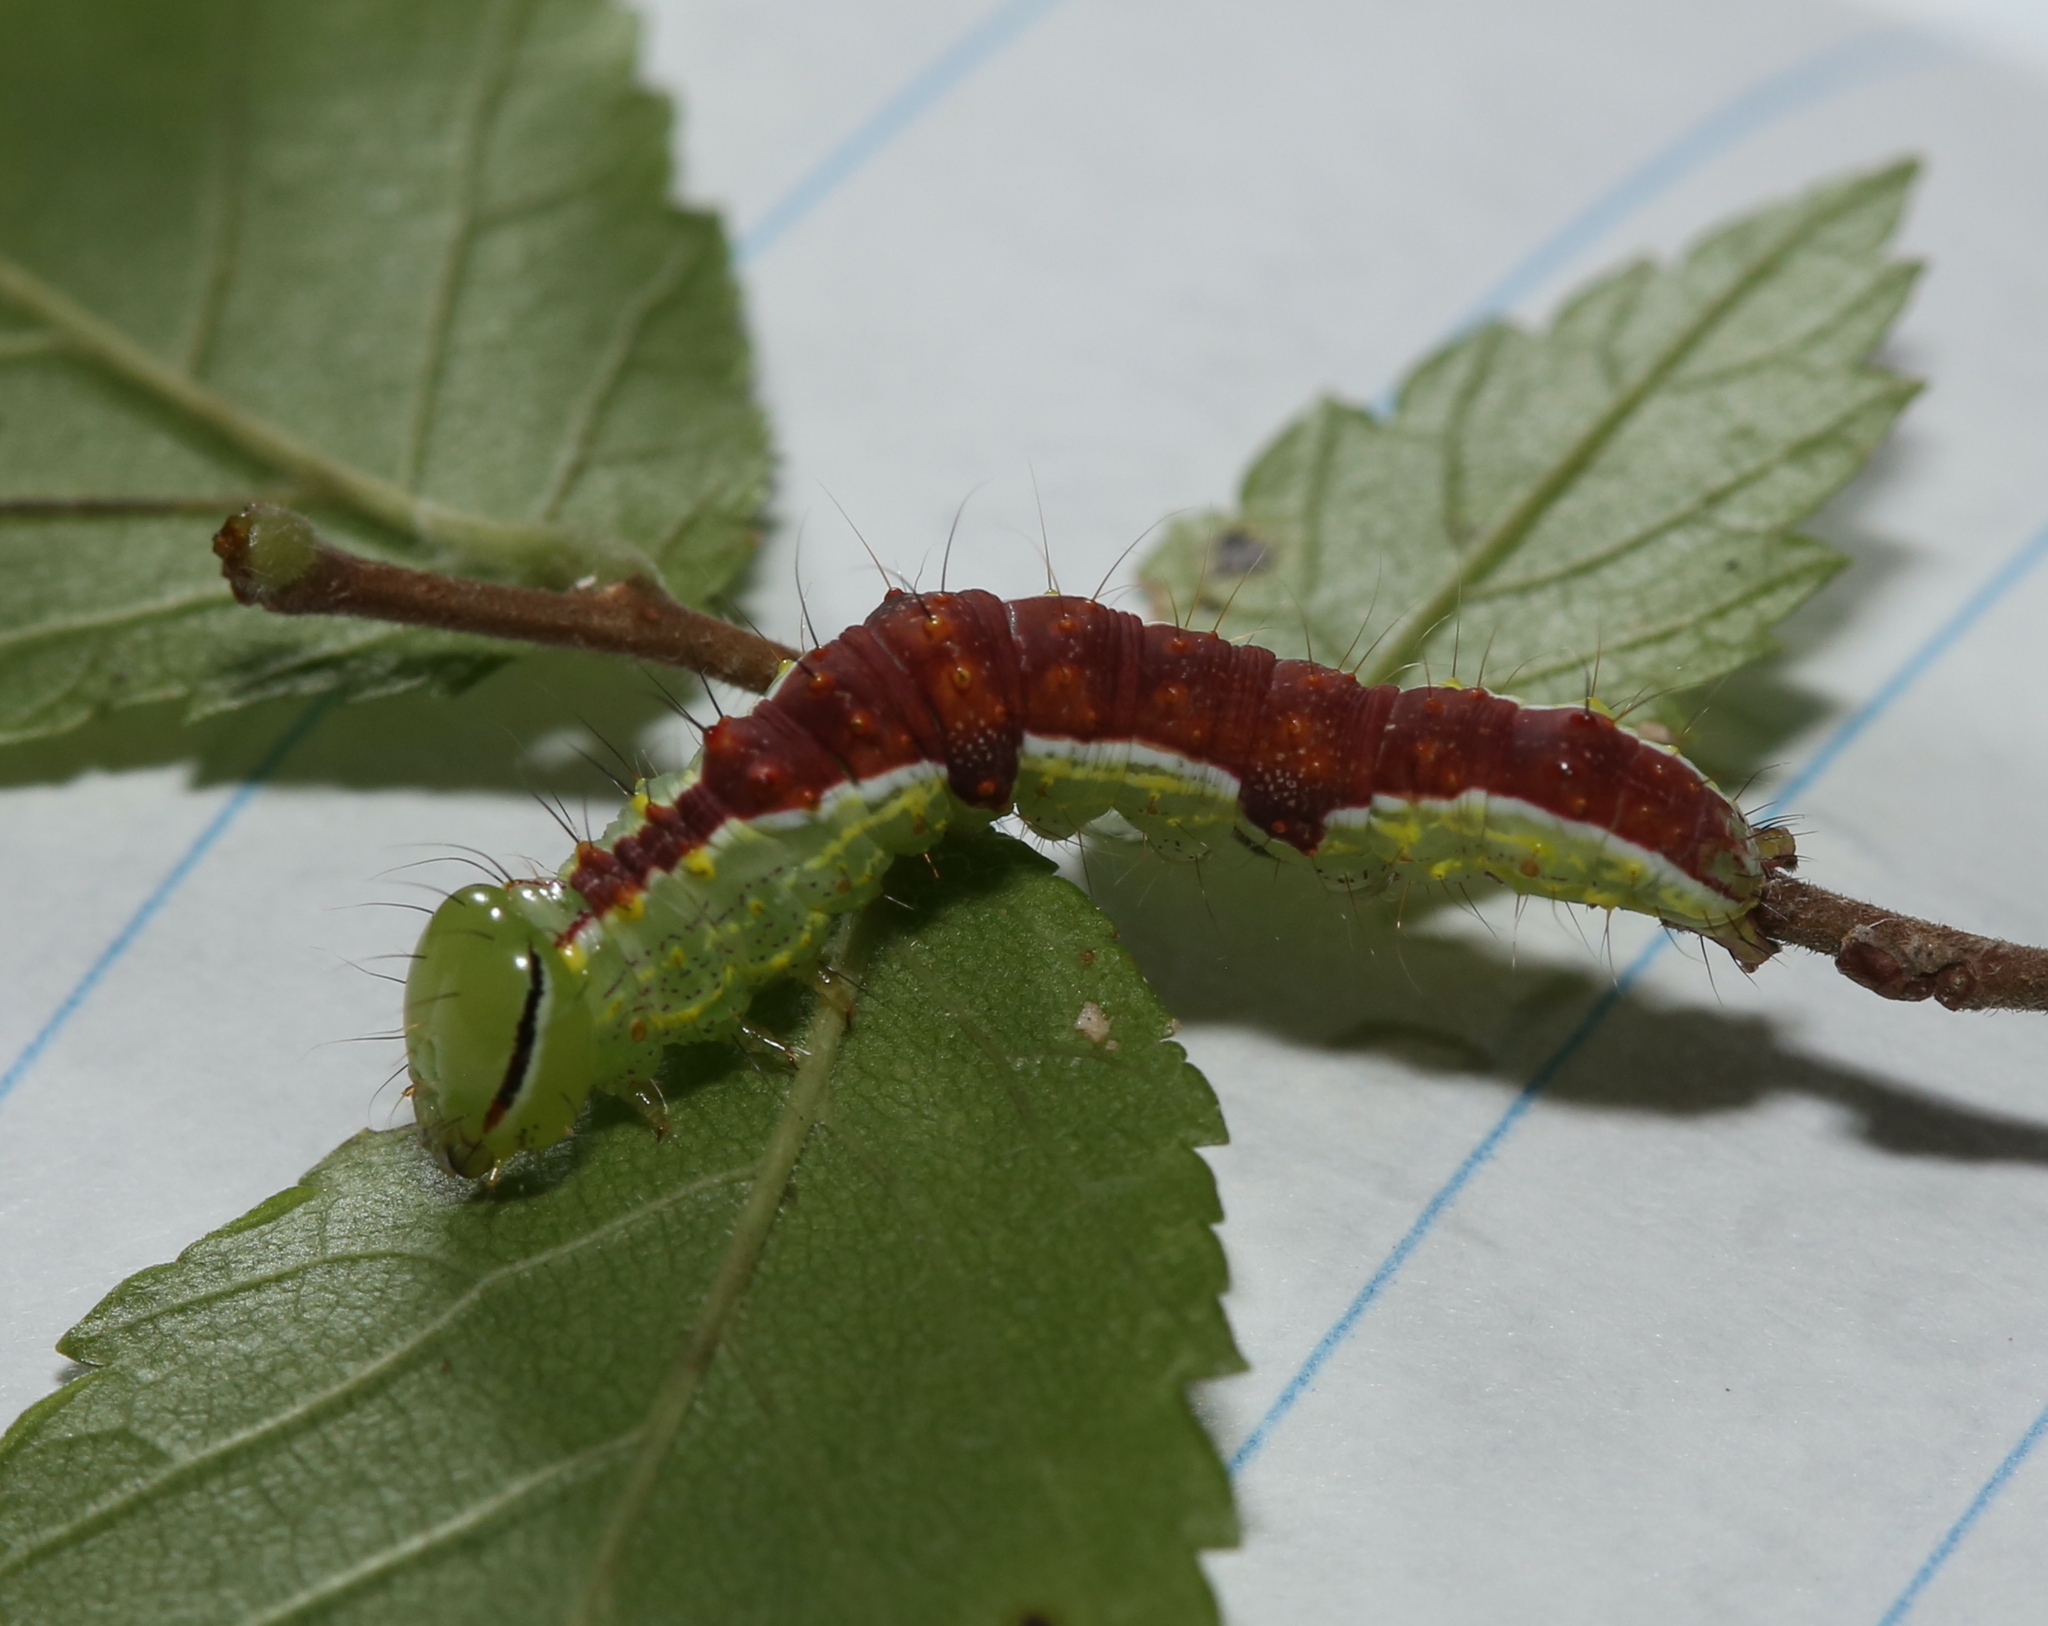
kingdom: Animalia
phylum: Arthropoda
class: Insecta
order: Lepidoptera
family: Notodontidae
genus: Lochmaeus
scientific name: Lochmaeus bilineata
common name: Double-lined prominent
